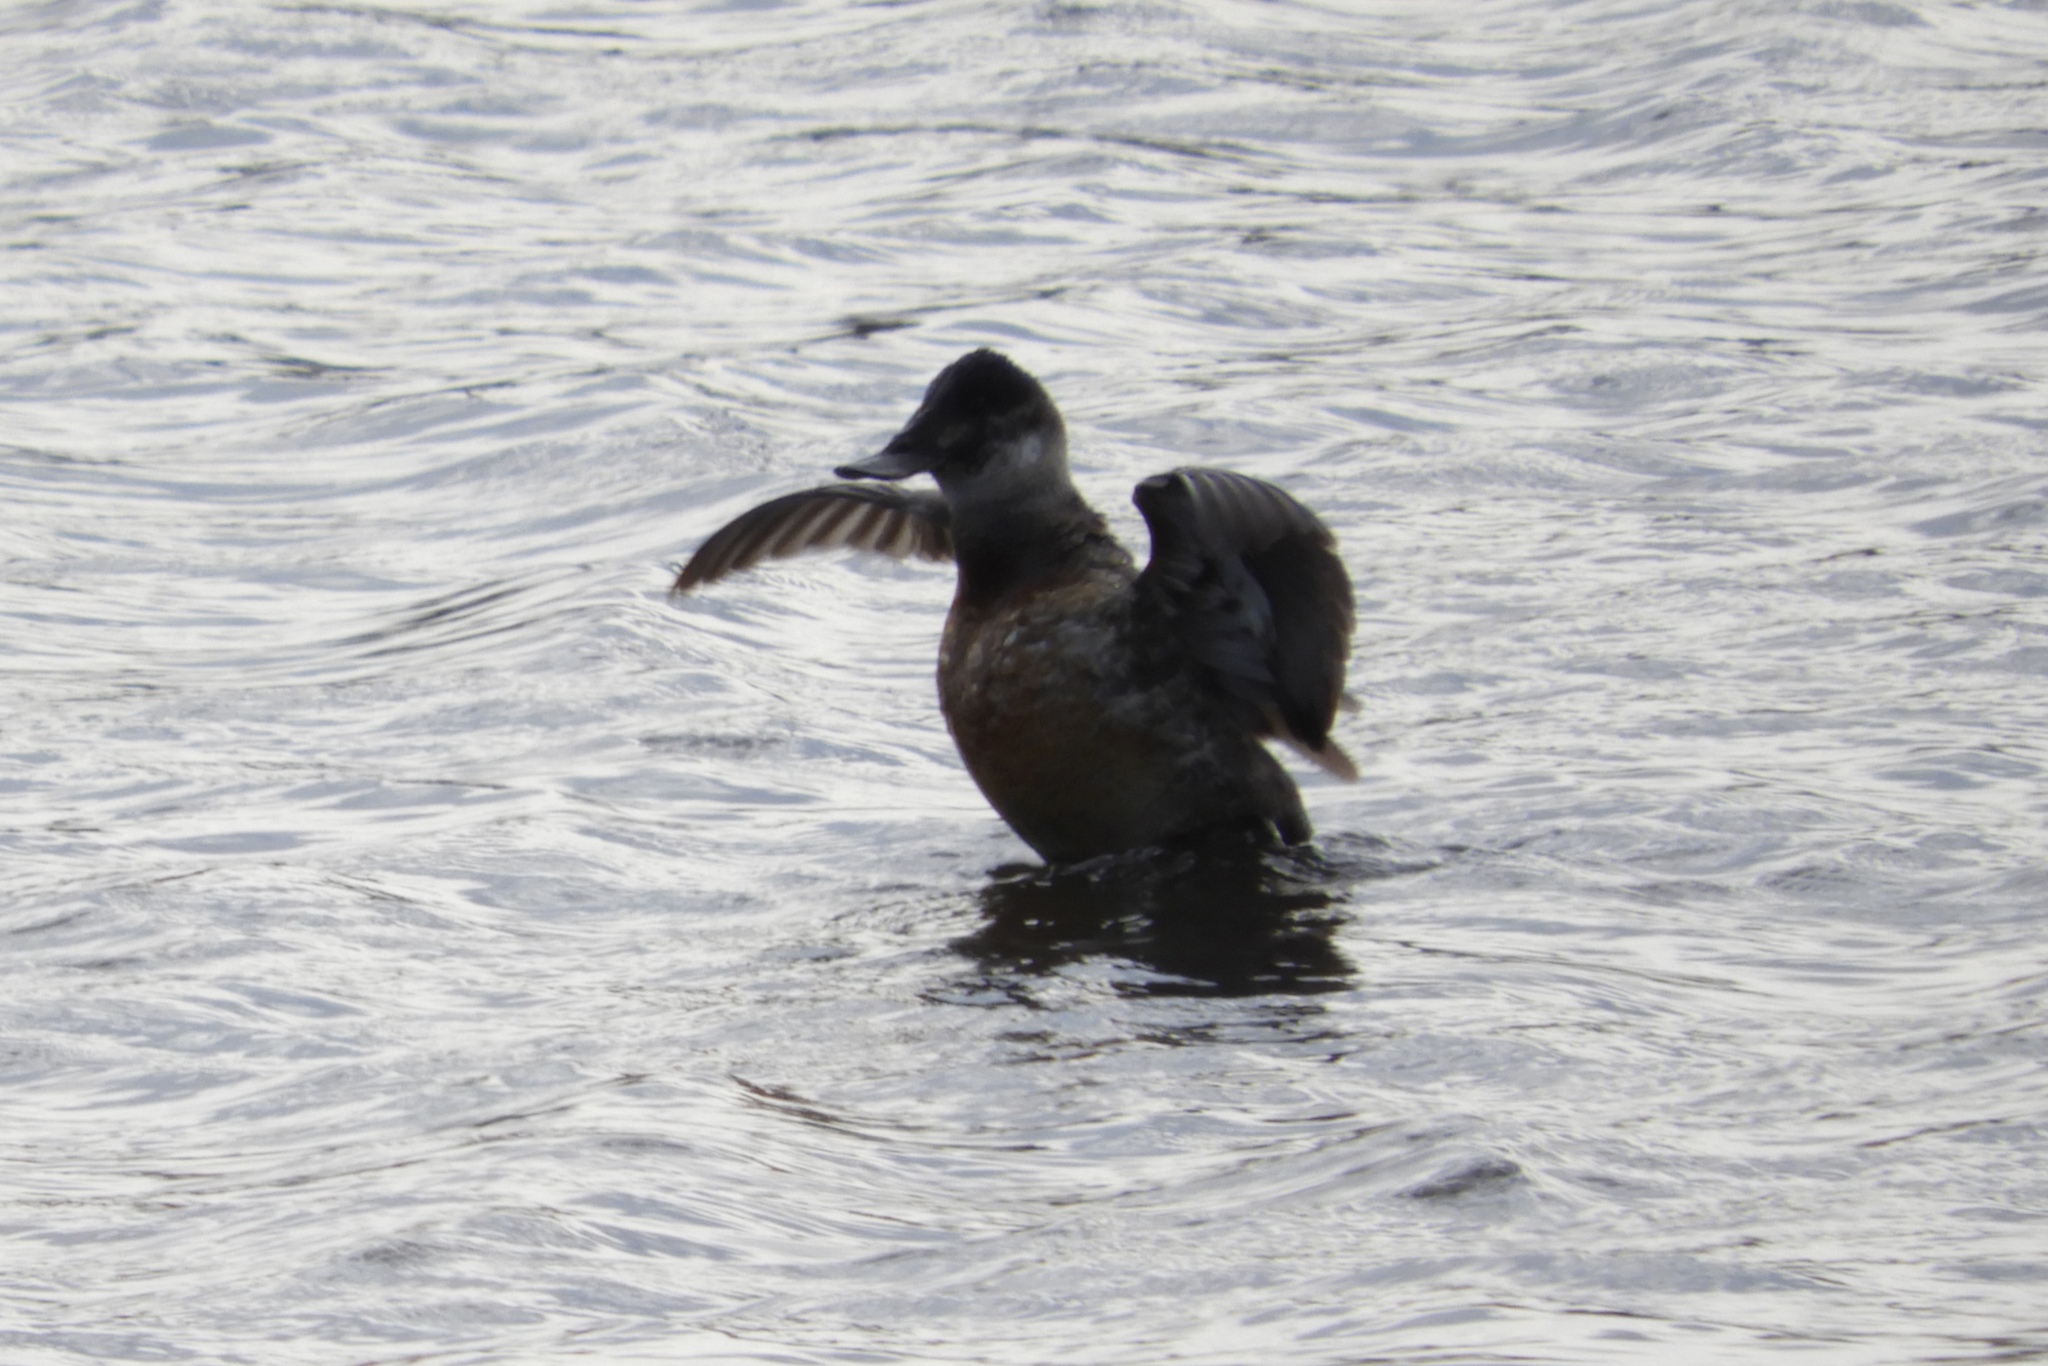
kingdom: Animalia
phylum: Chordata
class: Aves
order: Anseriformes
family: Anatidae
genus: Oxyura
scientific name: Oxyura jamaicensis
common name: Ruddy duck
